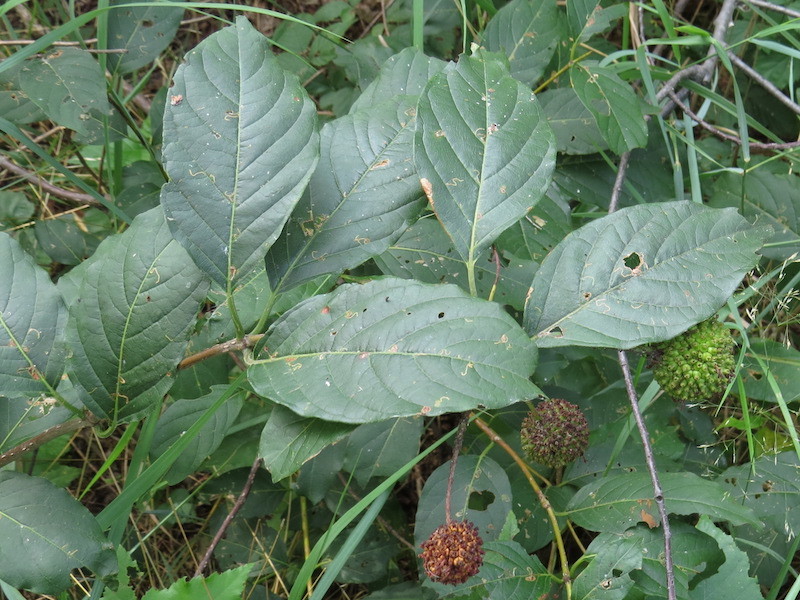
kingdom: Plantae
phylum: Tracheophyta
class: Magnoliopsida
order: Gentianales
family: Rubiaceae
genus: Cephalanthus
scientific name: Cephalanthus occidentalis
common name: Button-willow
